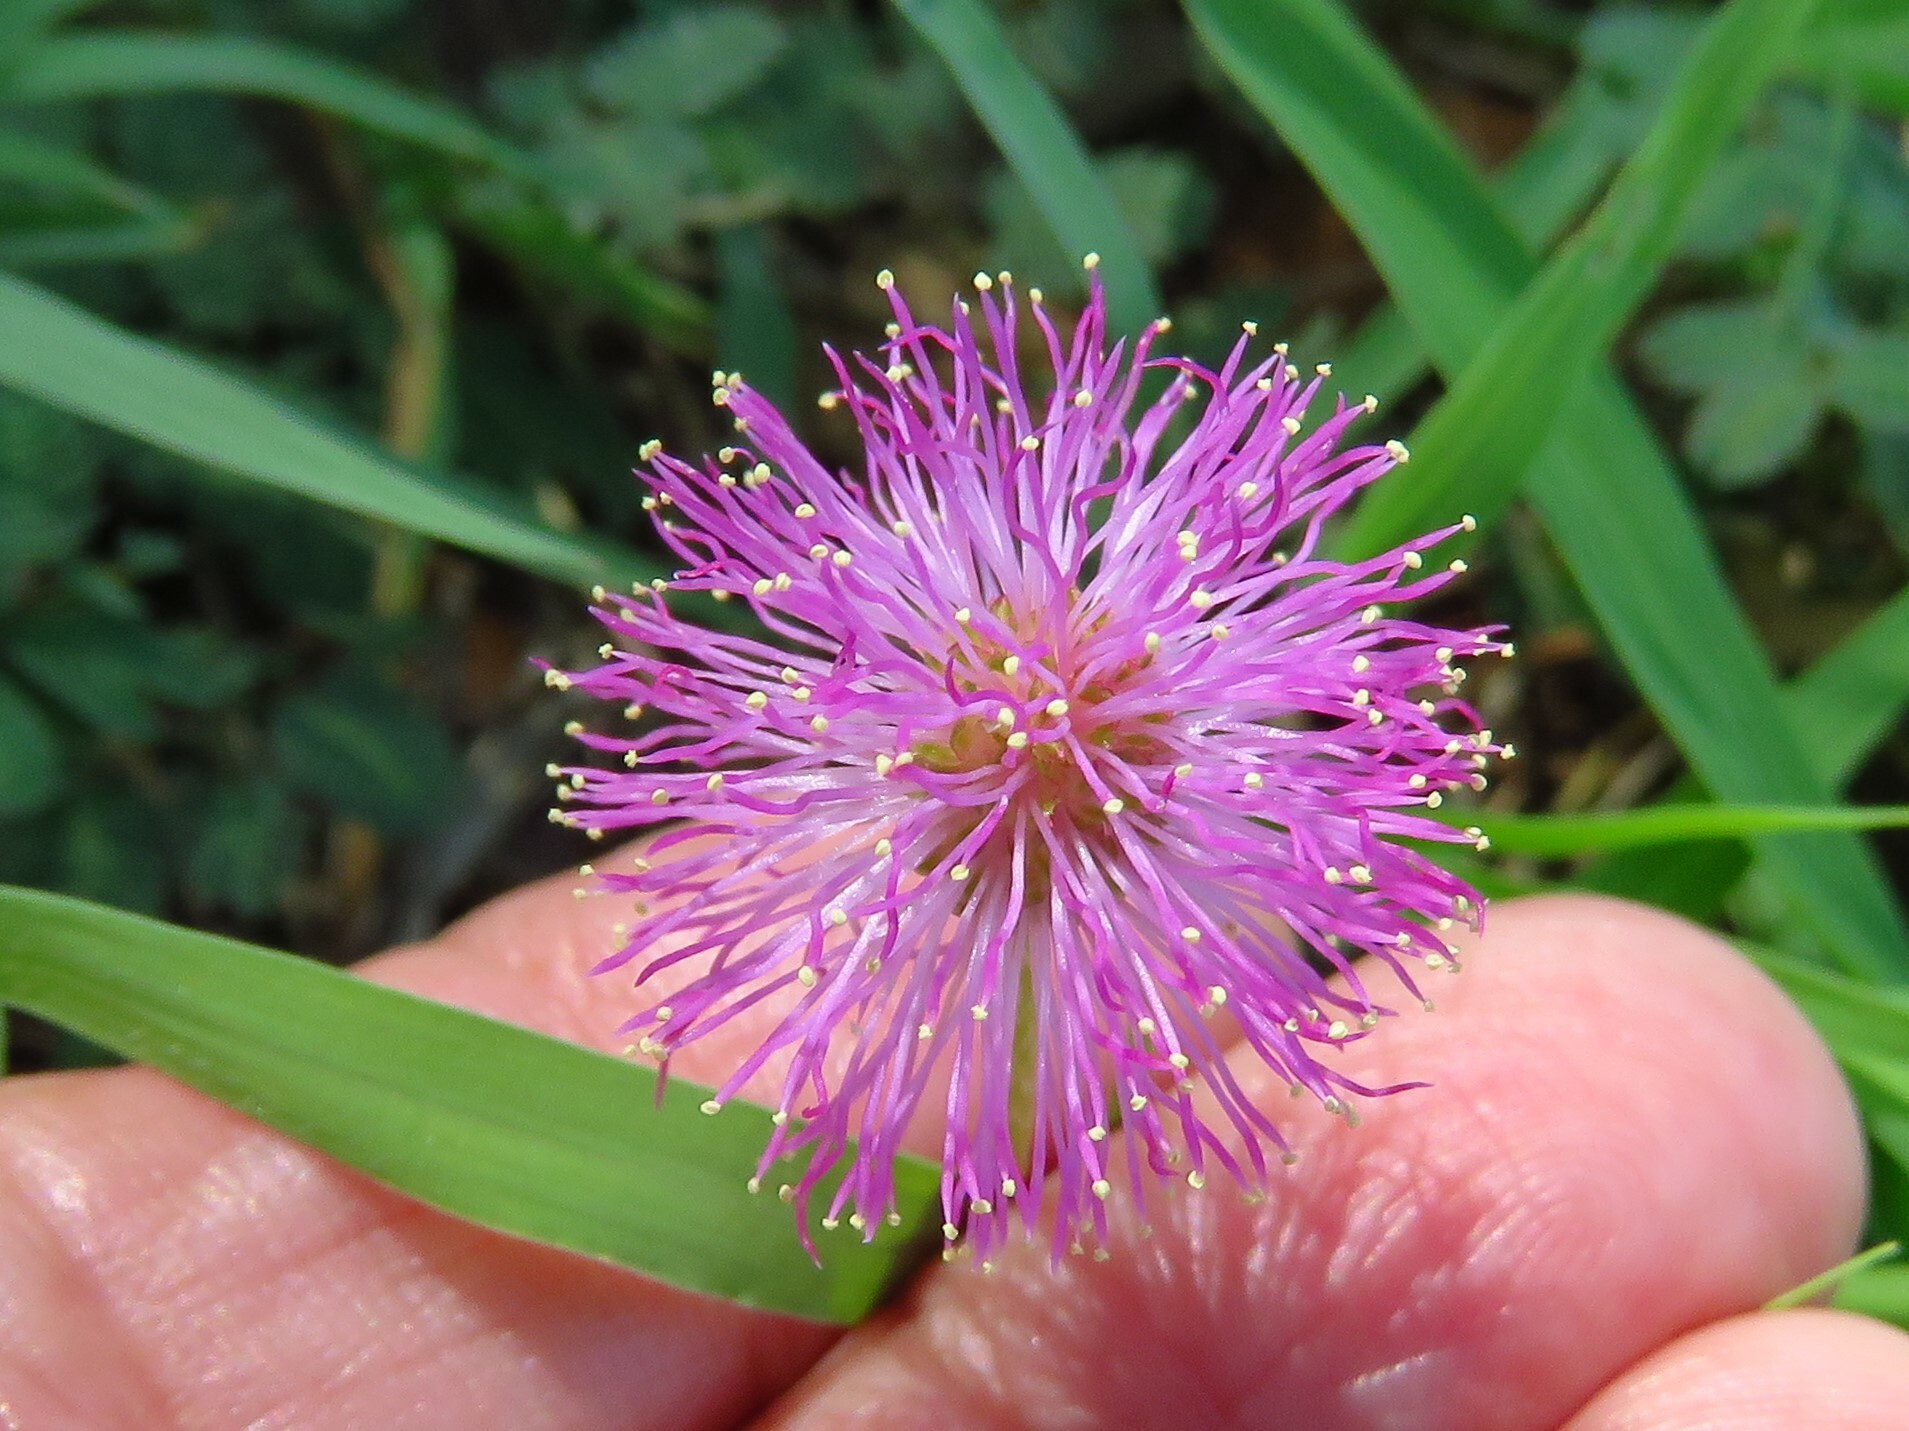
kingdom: Plantae
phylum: Tracheophyta
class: Magnoliopsida
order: Fabales
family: Fabaceae
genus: Mimosa
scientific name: Mimosa strigillosa
